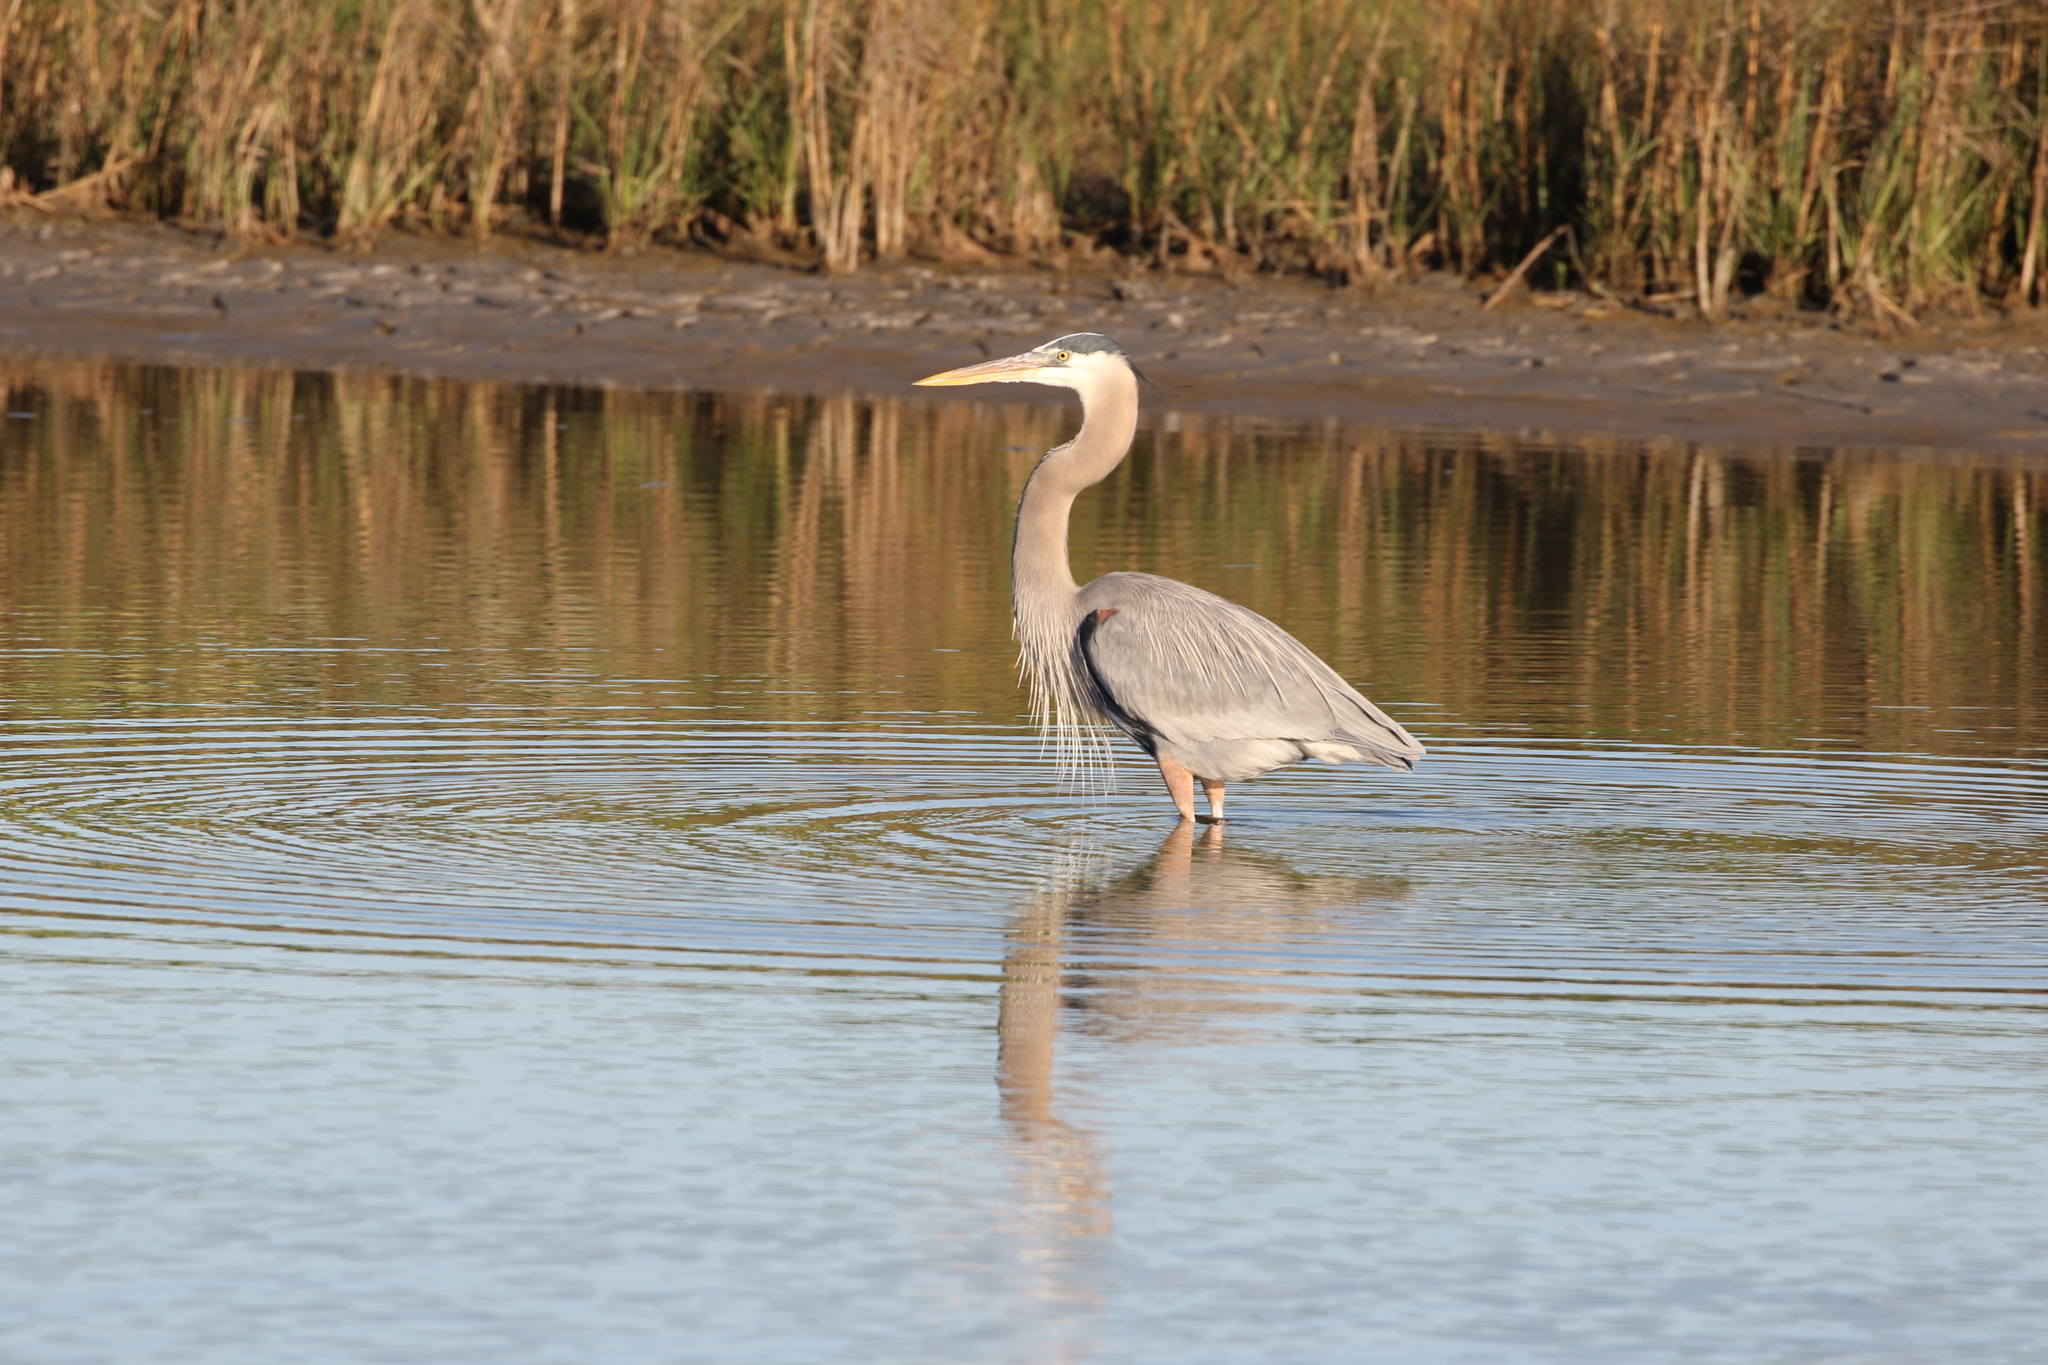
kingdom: Animalia
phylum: Chordata
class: Aves
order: Pelecaniformes
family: Ardeidae
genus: Ardea
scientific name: Ardea herodias
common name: Great blue heron
